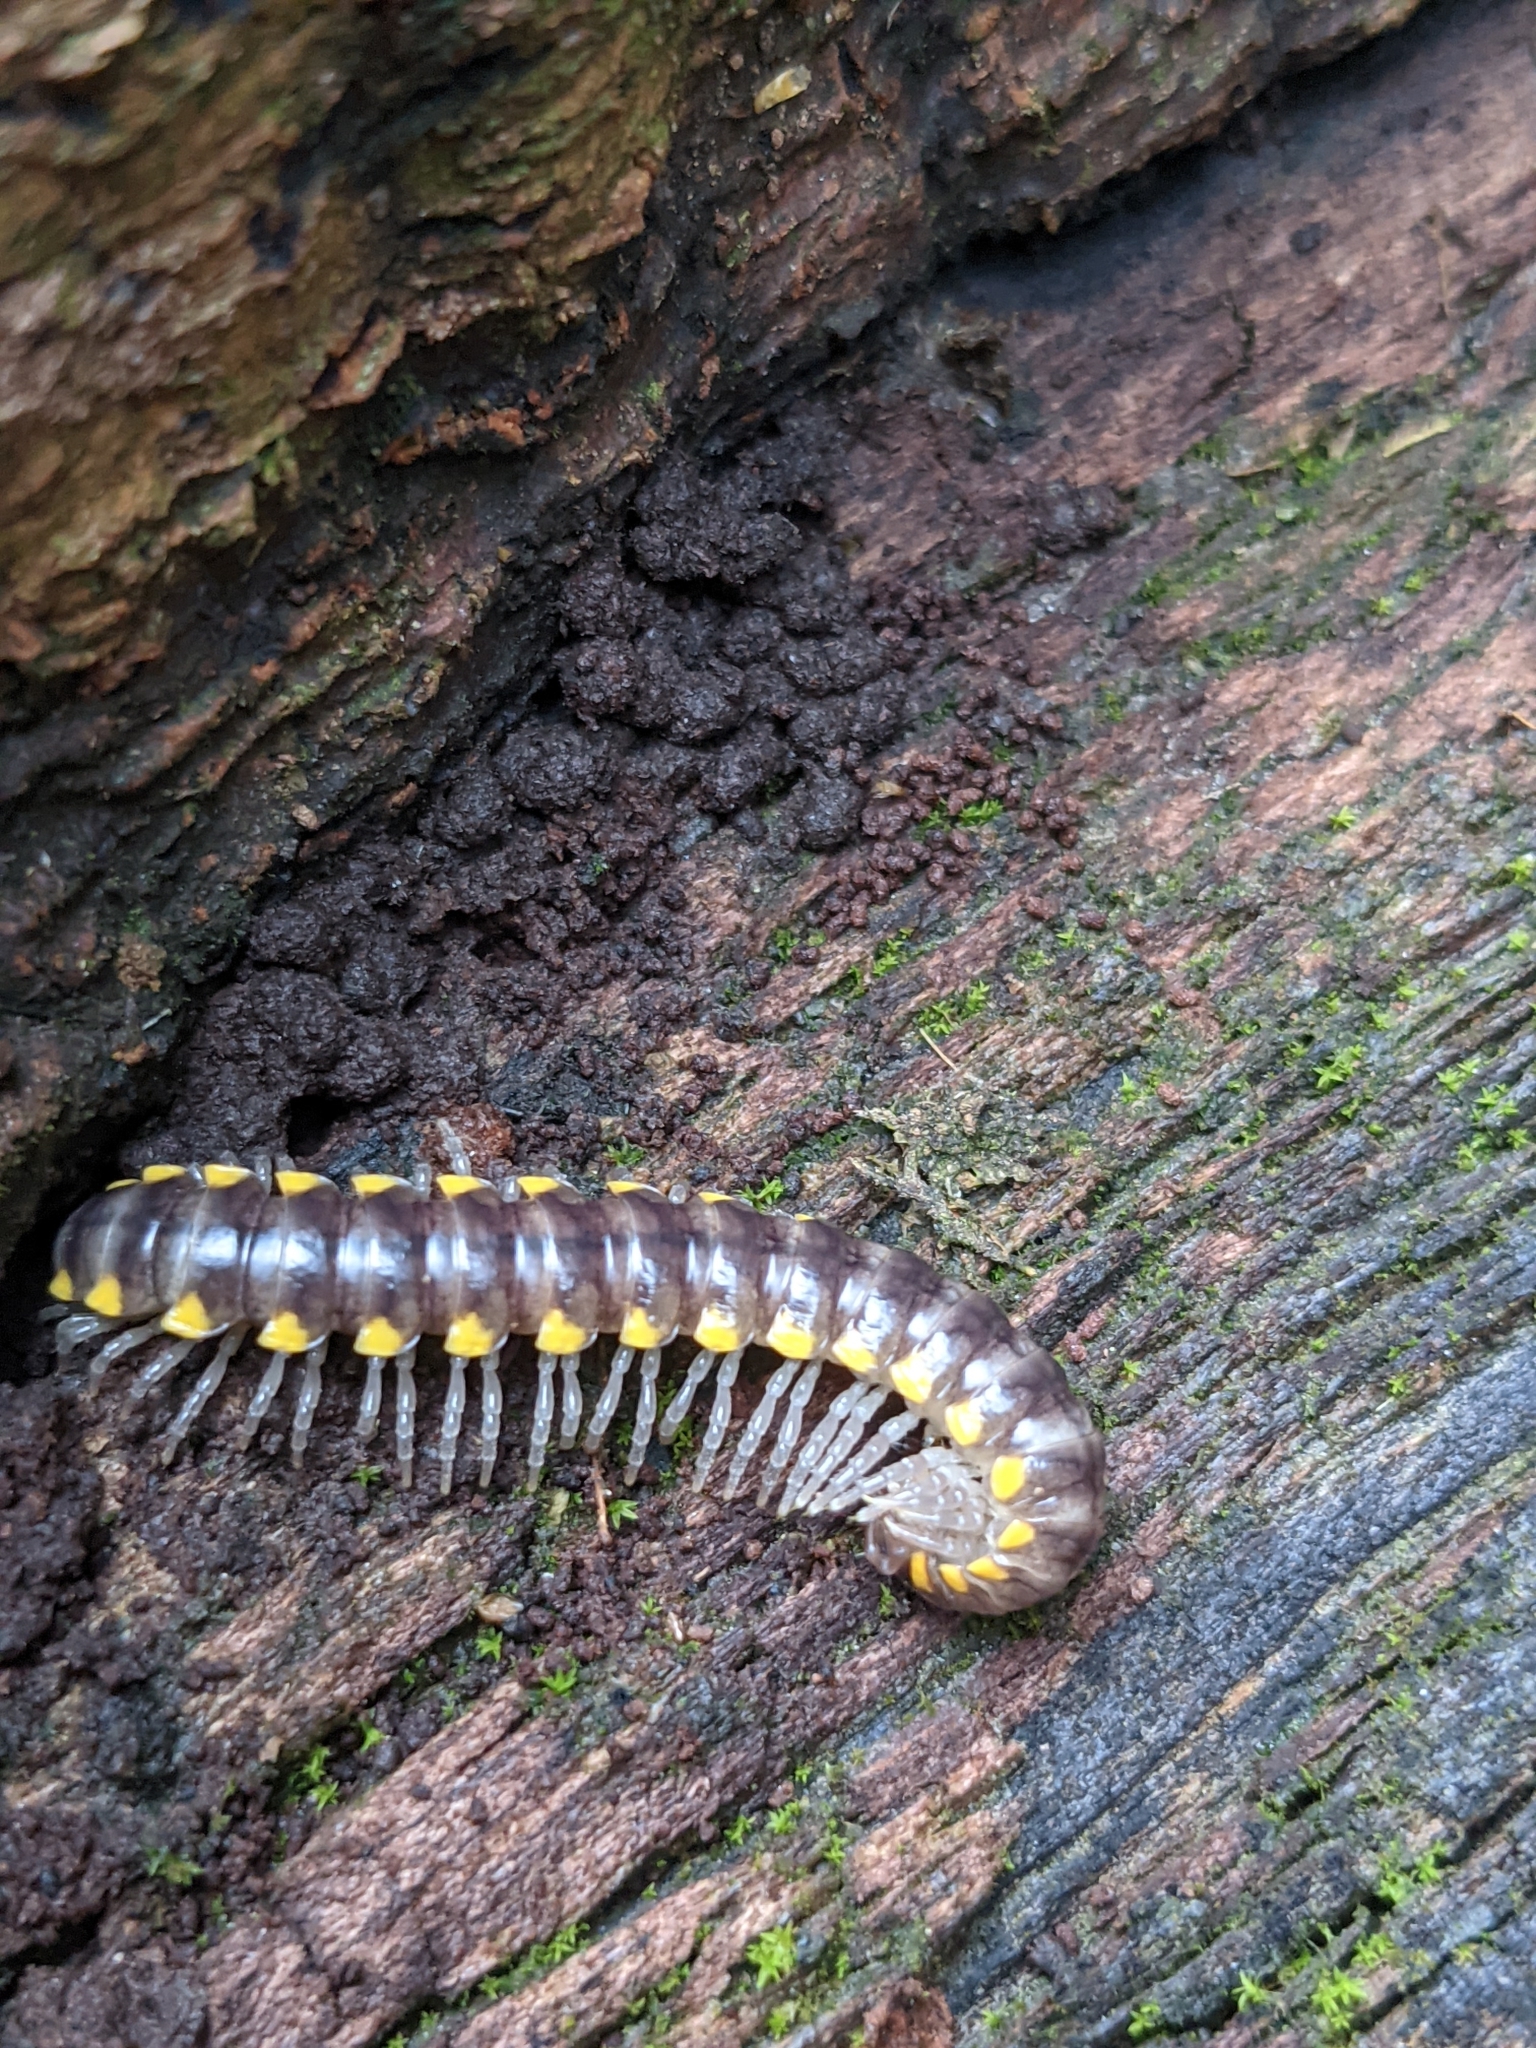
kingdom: Animalia
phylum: Arthropoda
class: Diplopoda
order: Polydesmida
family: Xystodesmidae
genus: Harpaphe
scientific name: Harpaphe haydeniana
